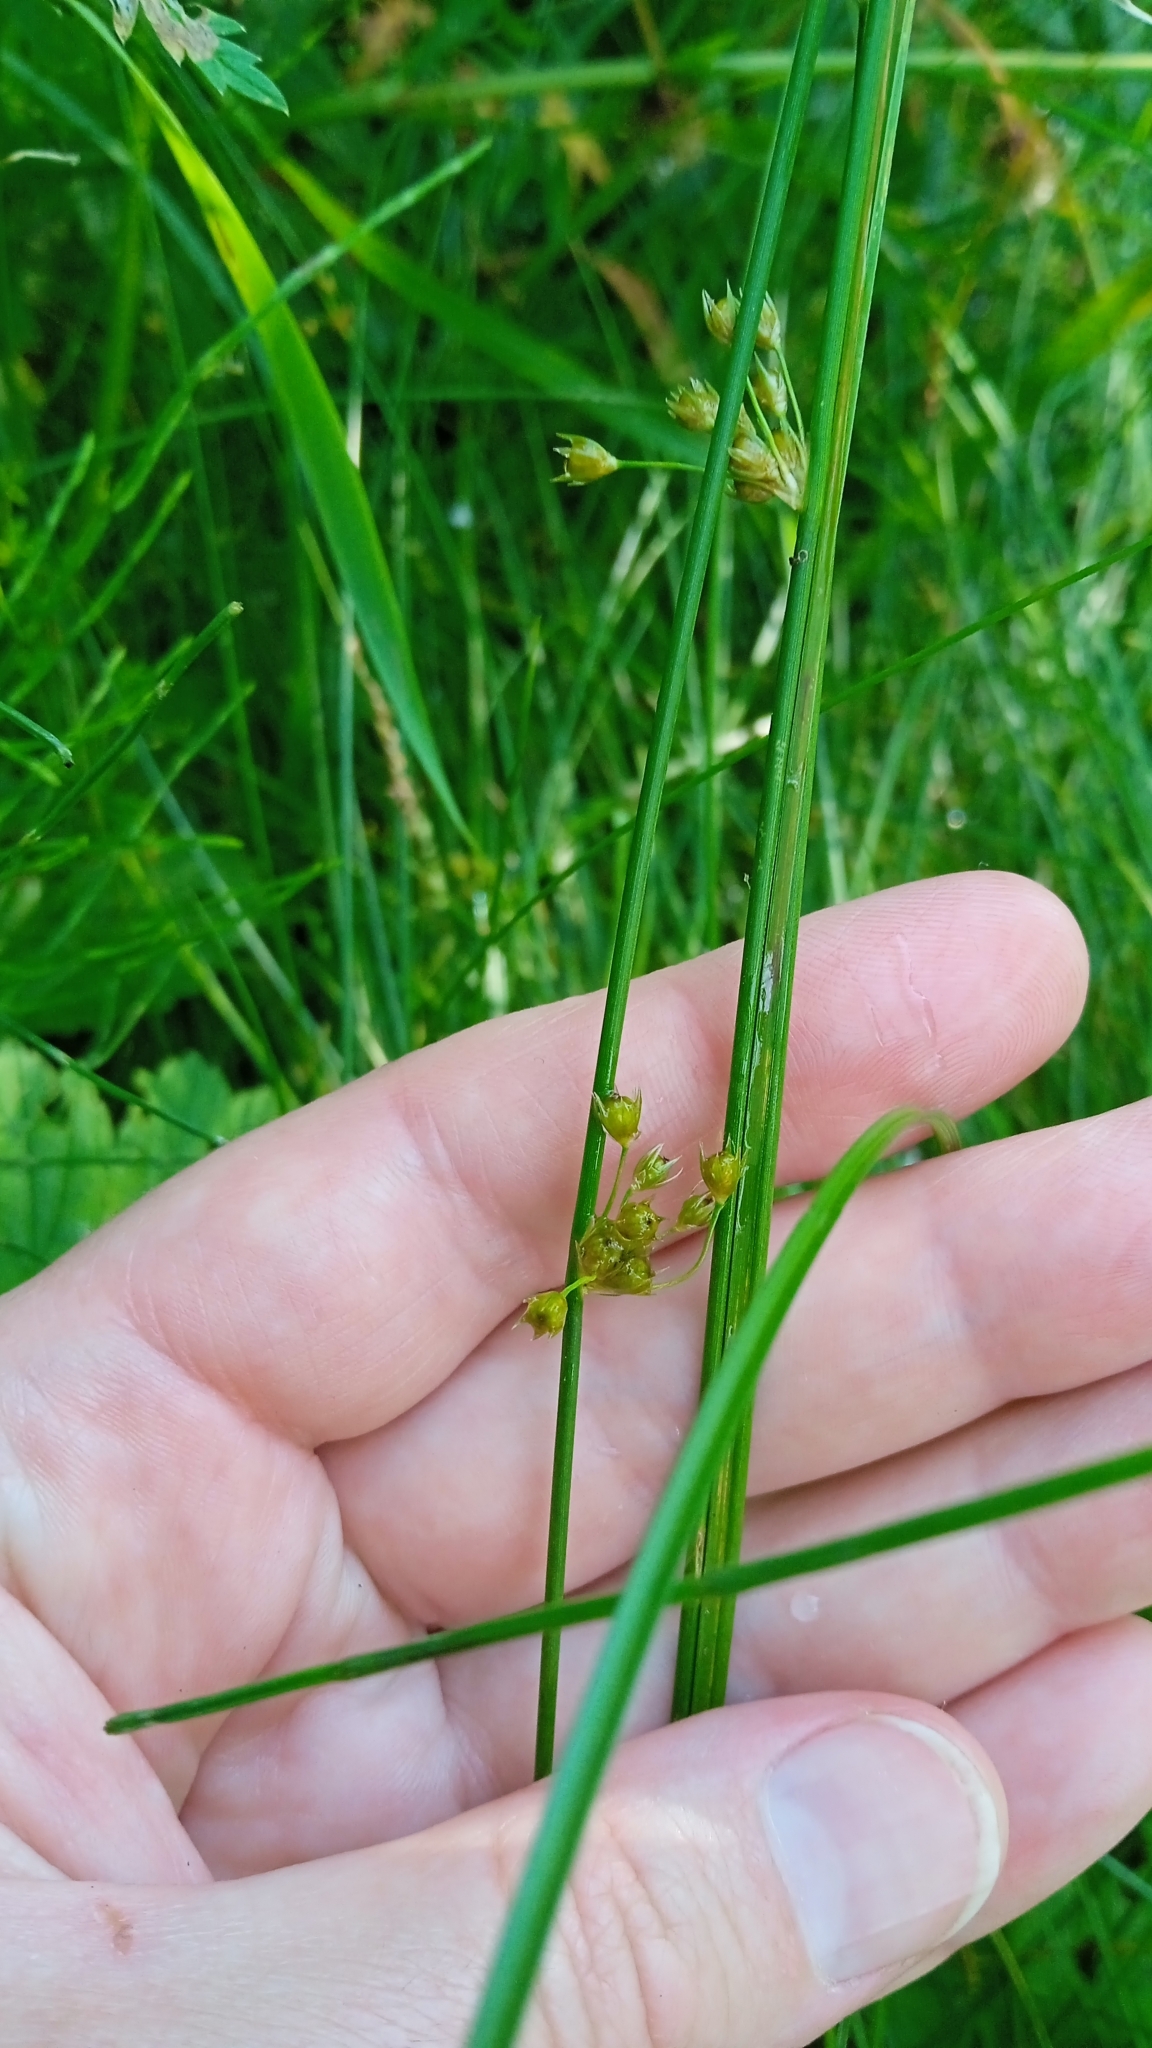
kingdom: Plantae
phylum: Tracheophyta
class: Liliopsida
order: Poales
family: Juncaceae
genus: Juncus
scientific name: Juncus filiformis
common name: Thread rush
